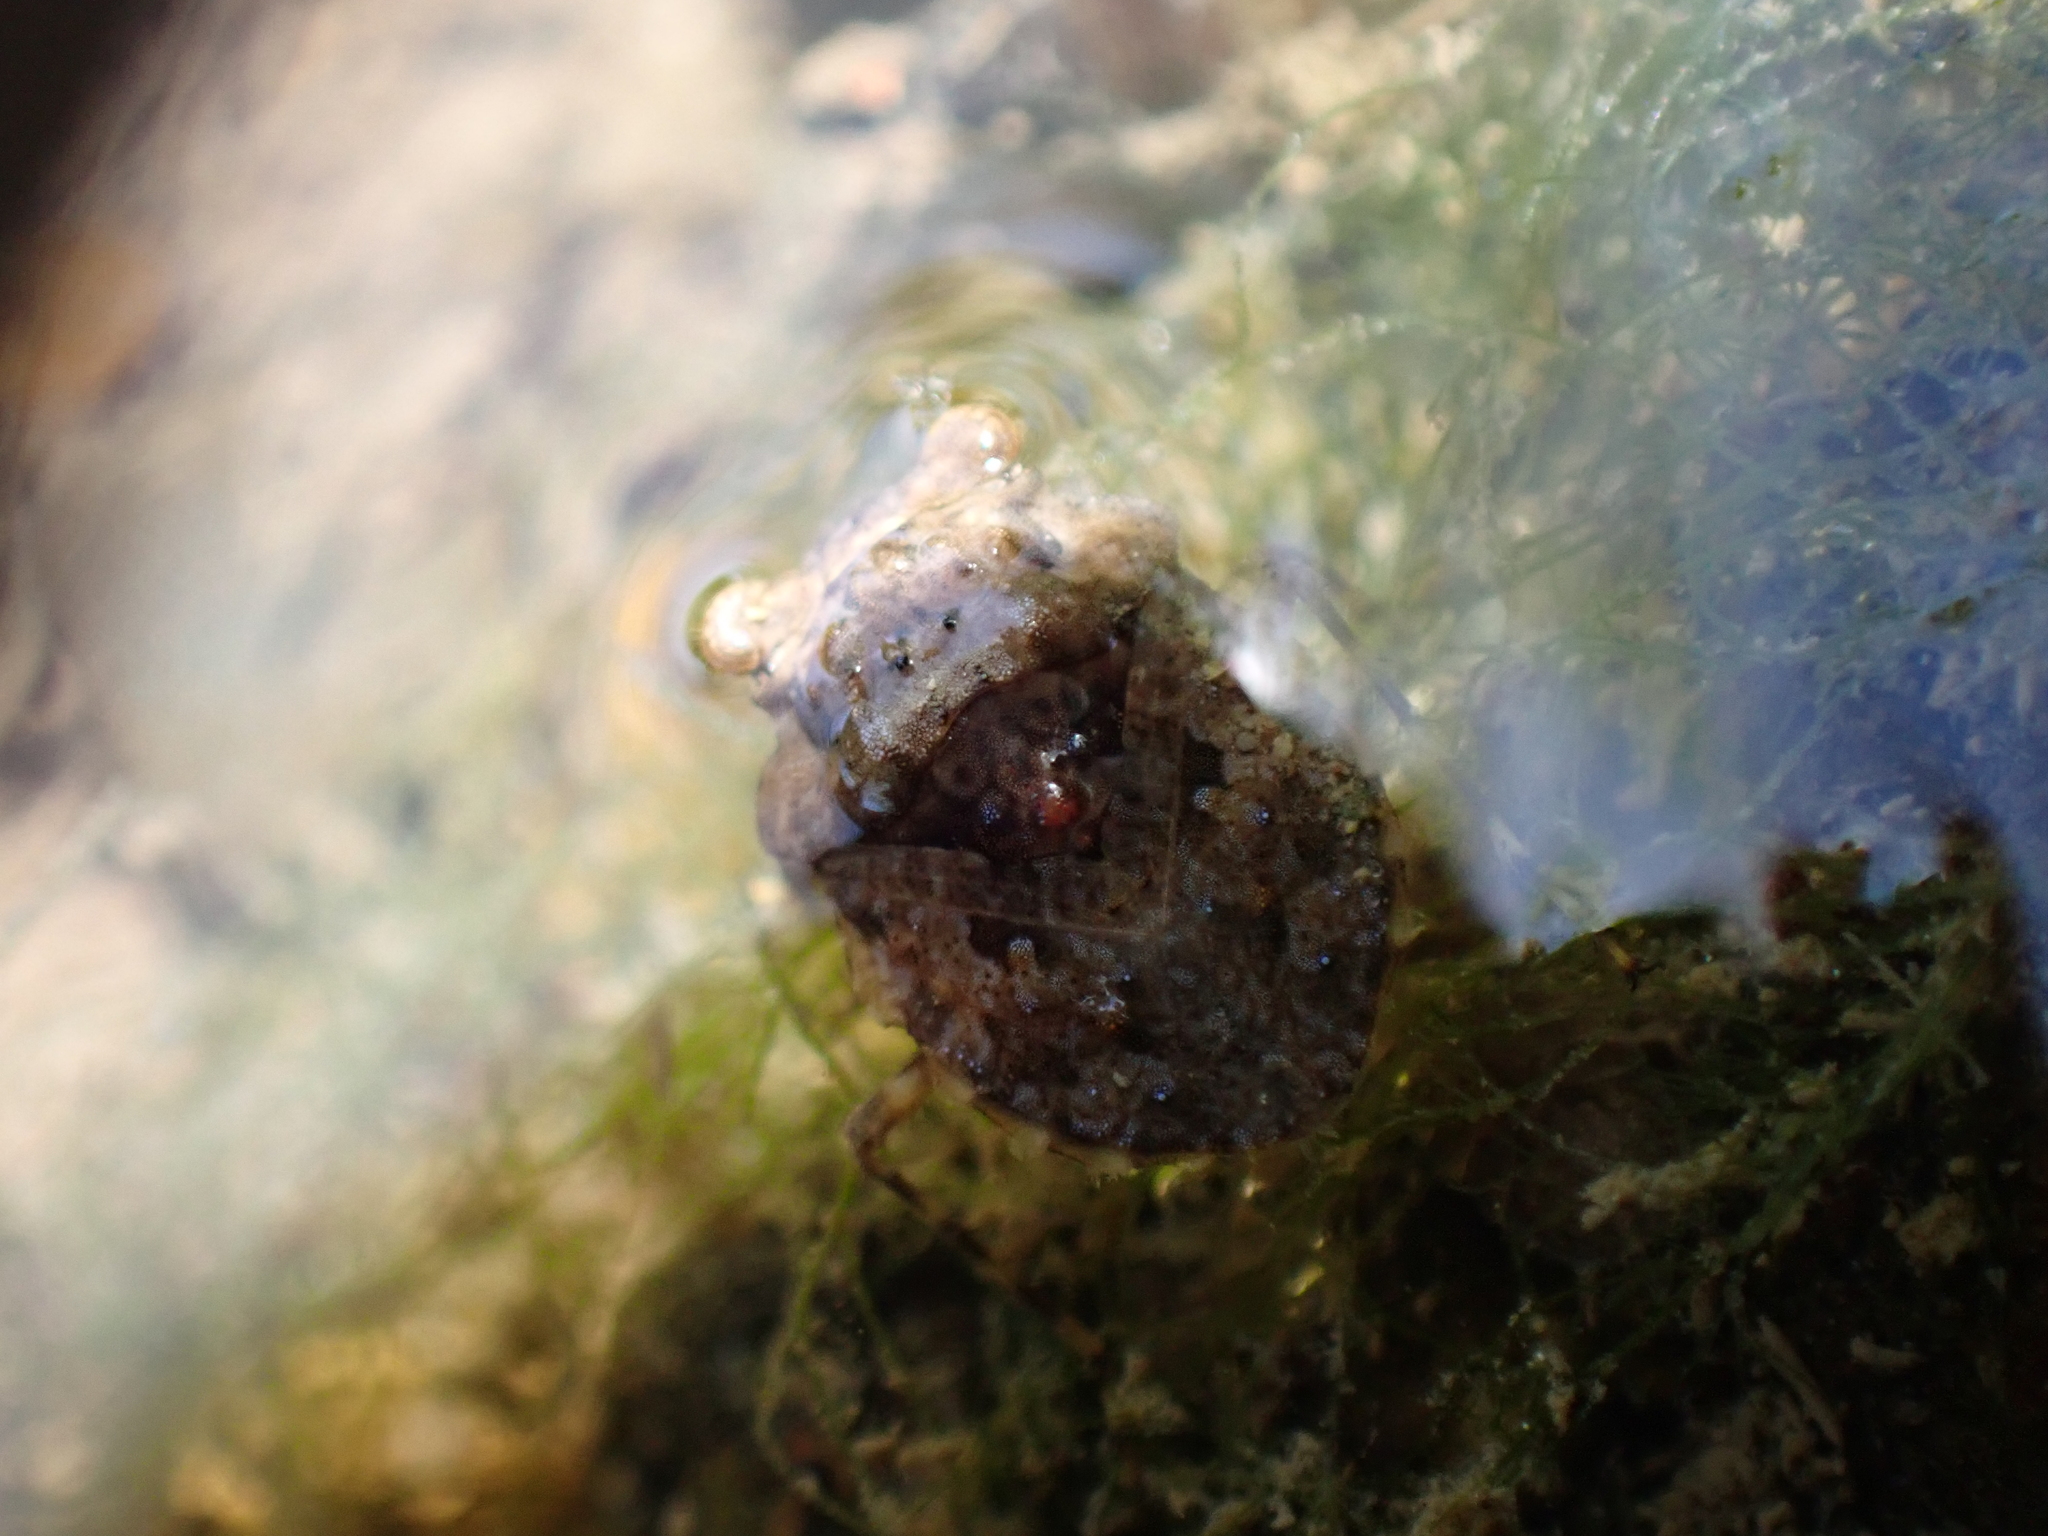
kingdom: Animalia
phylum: Arthropoda
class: Insecta
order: Hemiptera
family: Gelastocoridae
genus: Gelastocoris
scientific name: Gelastocoris oculatus
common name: Toad bug
